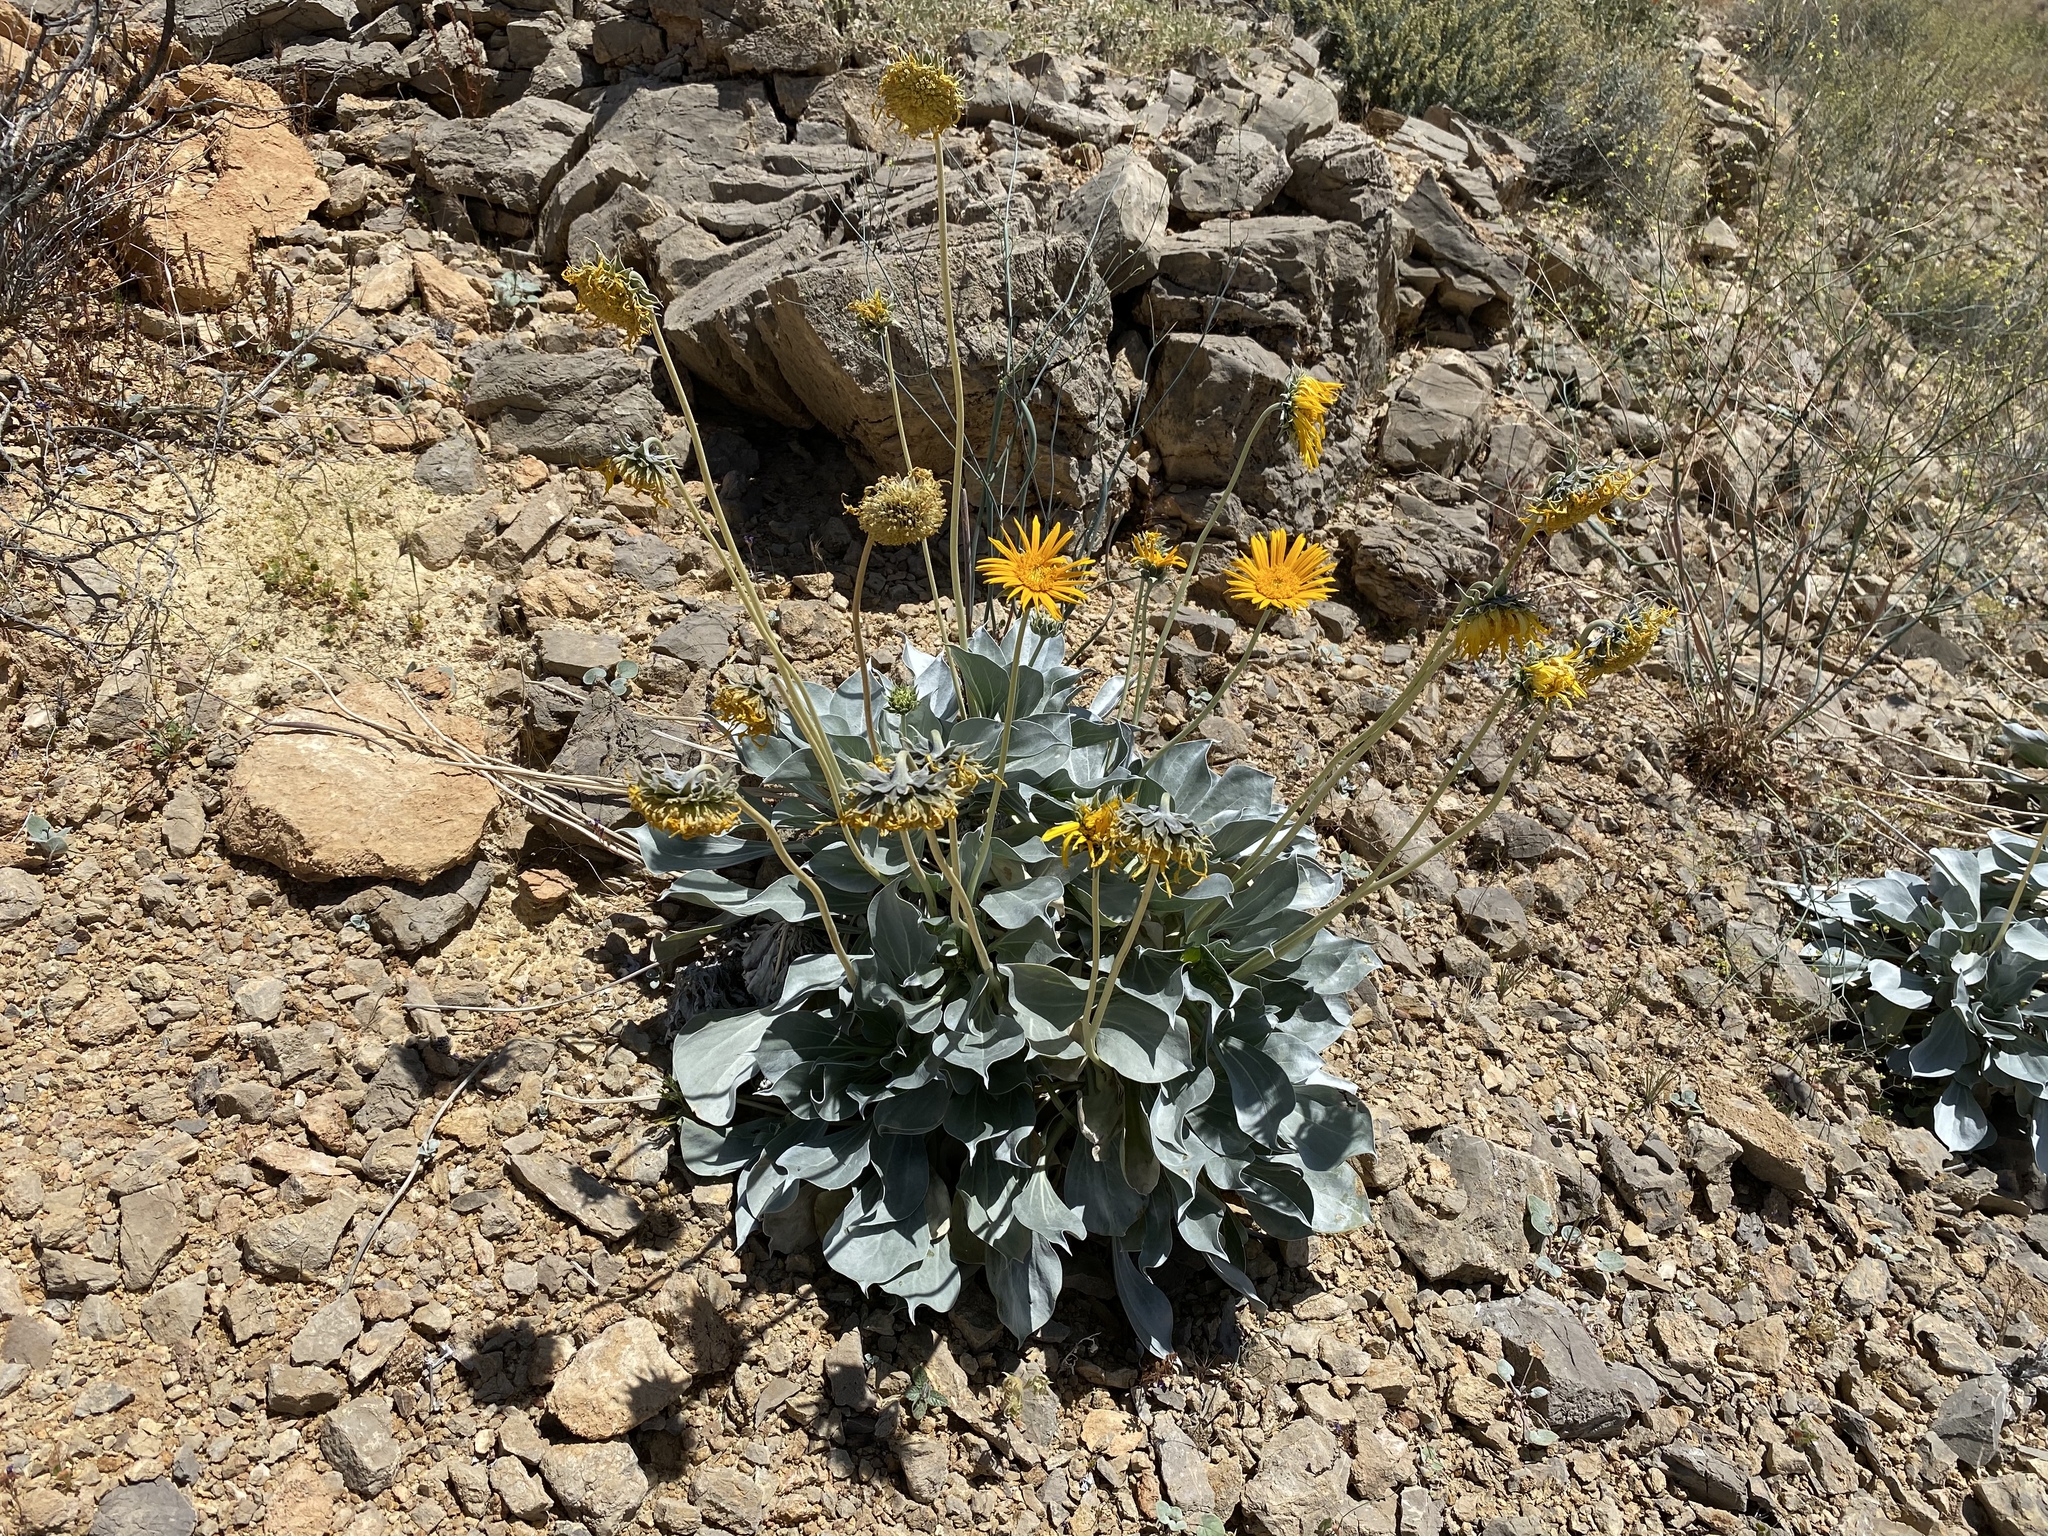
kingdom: Plantae
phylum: Tracheophyta
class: Magnoliopsida
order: Asterales
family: Asteraceae
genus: Enceliopsis
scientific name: Enceliopsis argophylla
